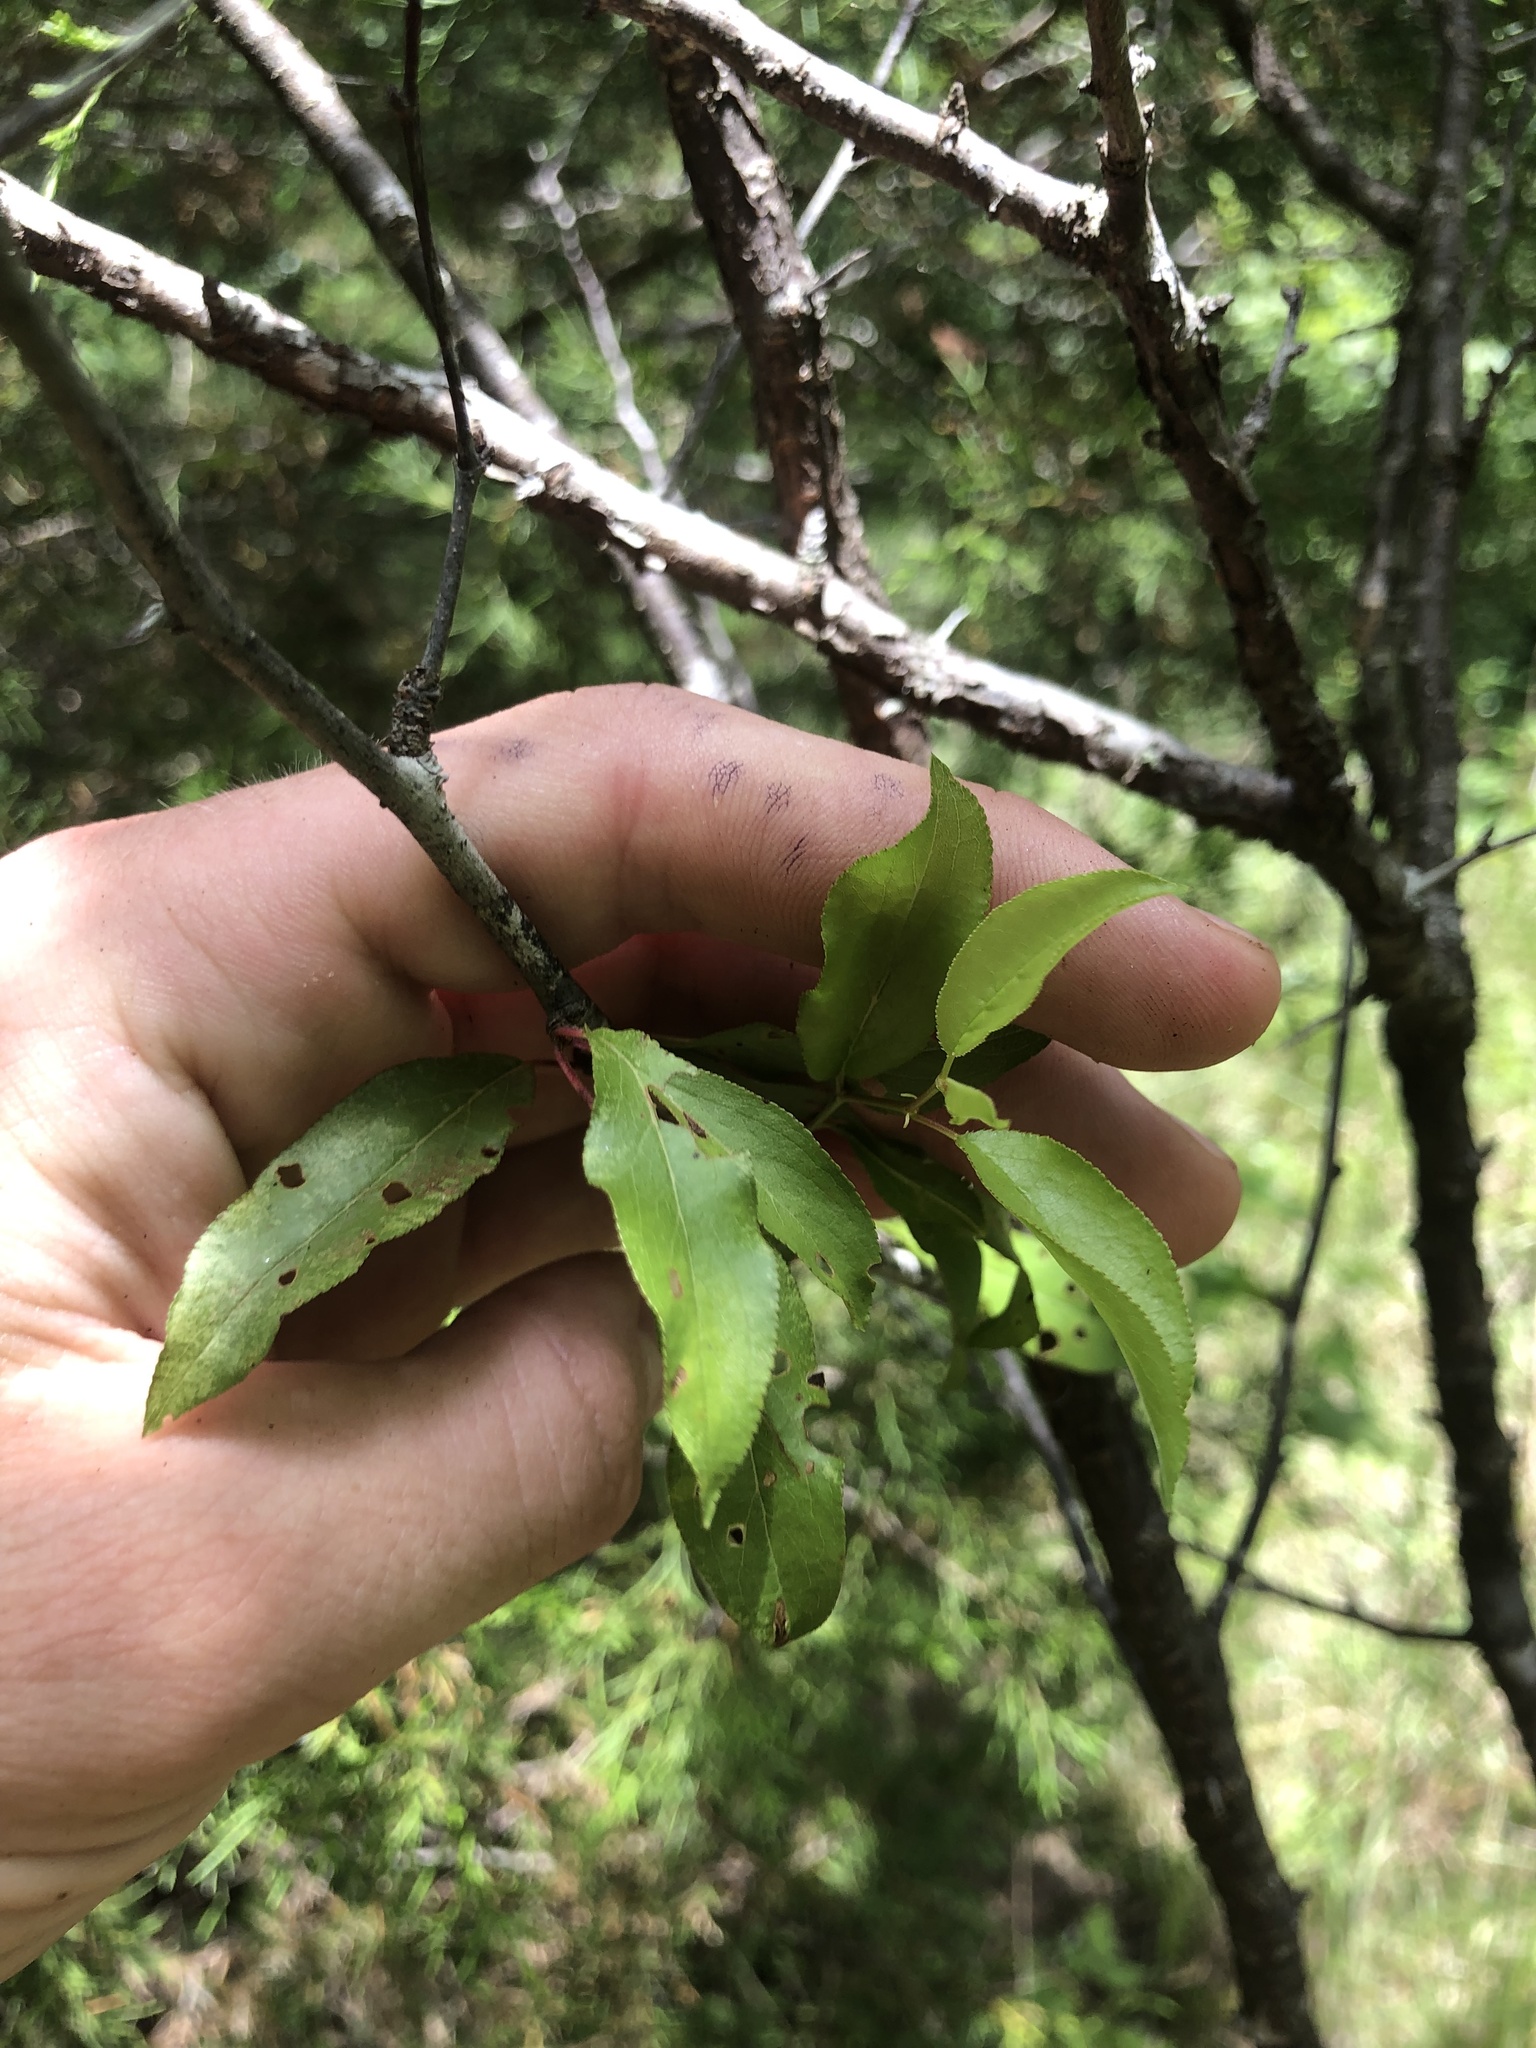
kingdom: Plantae
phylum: Tracheophyta
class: Magnoliopsida
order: Rosales
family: Rosaceae
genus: Prunus
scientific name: Prunus angustifolia
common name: Cherokee plum
